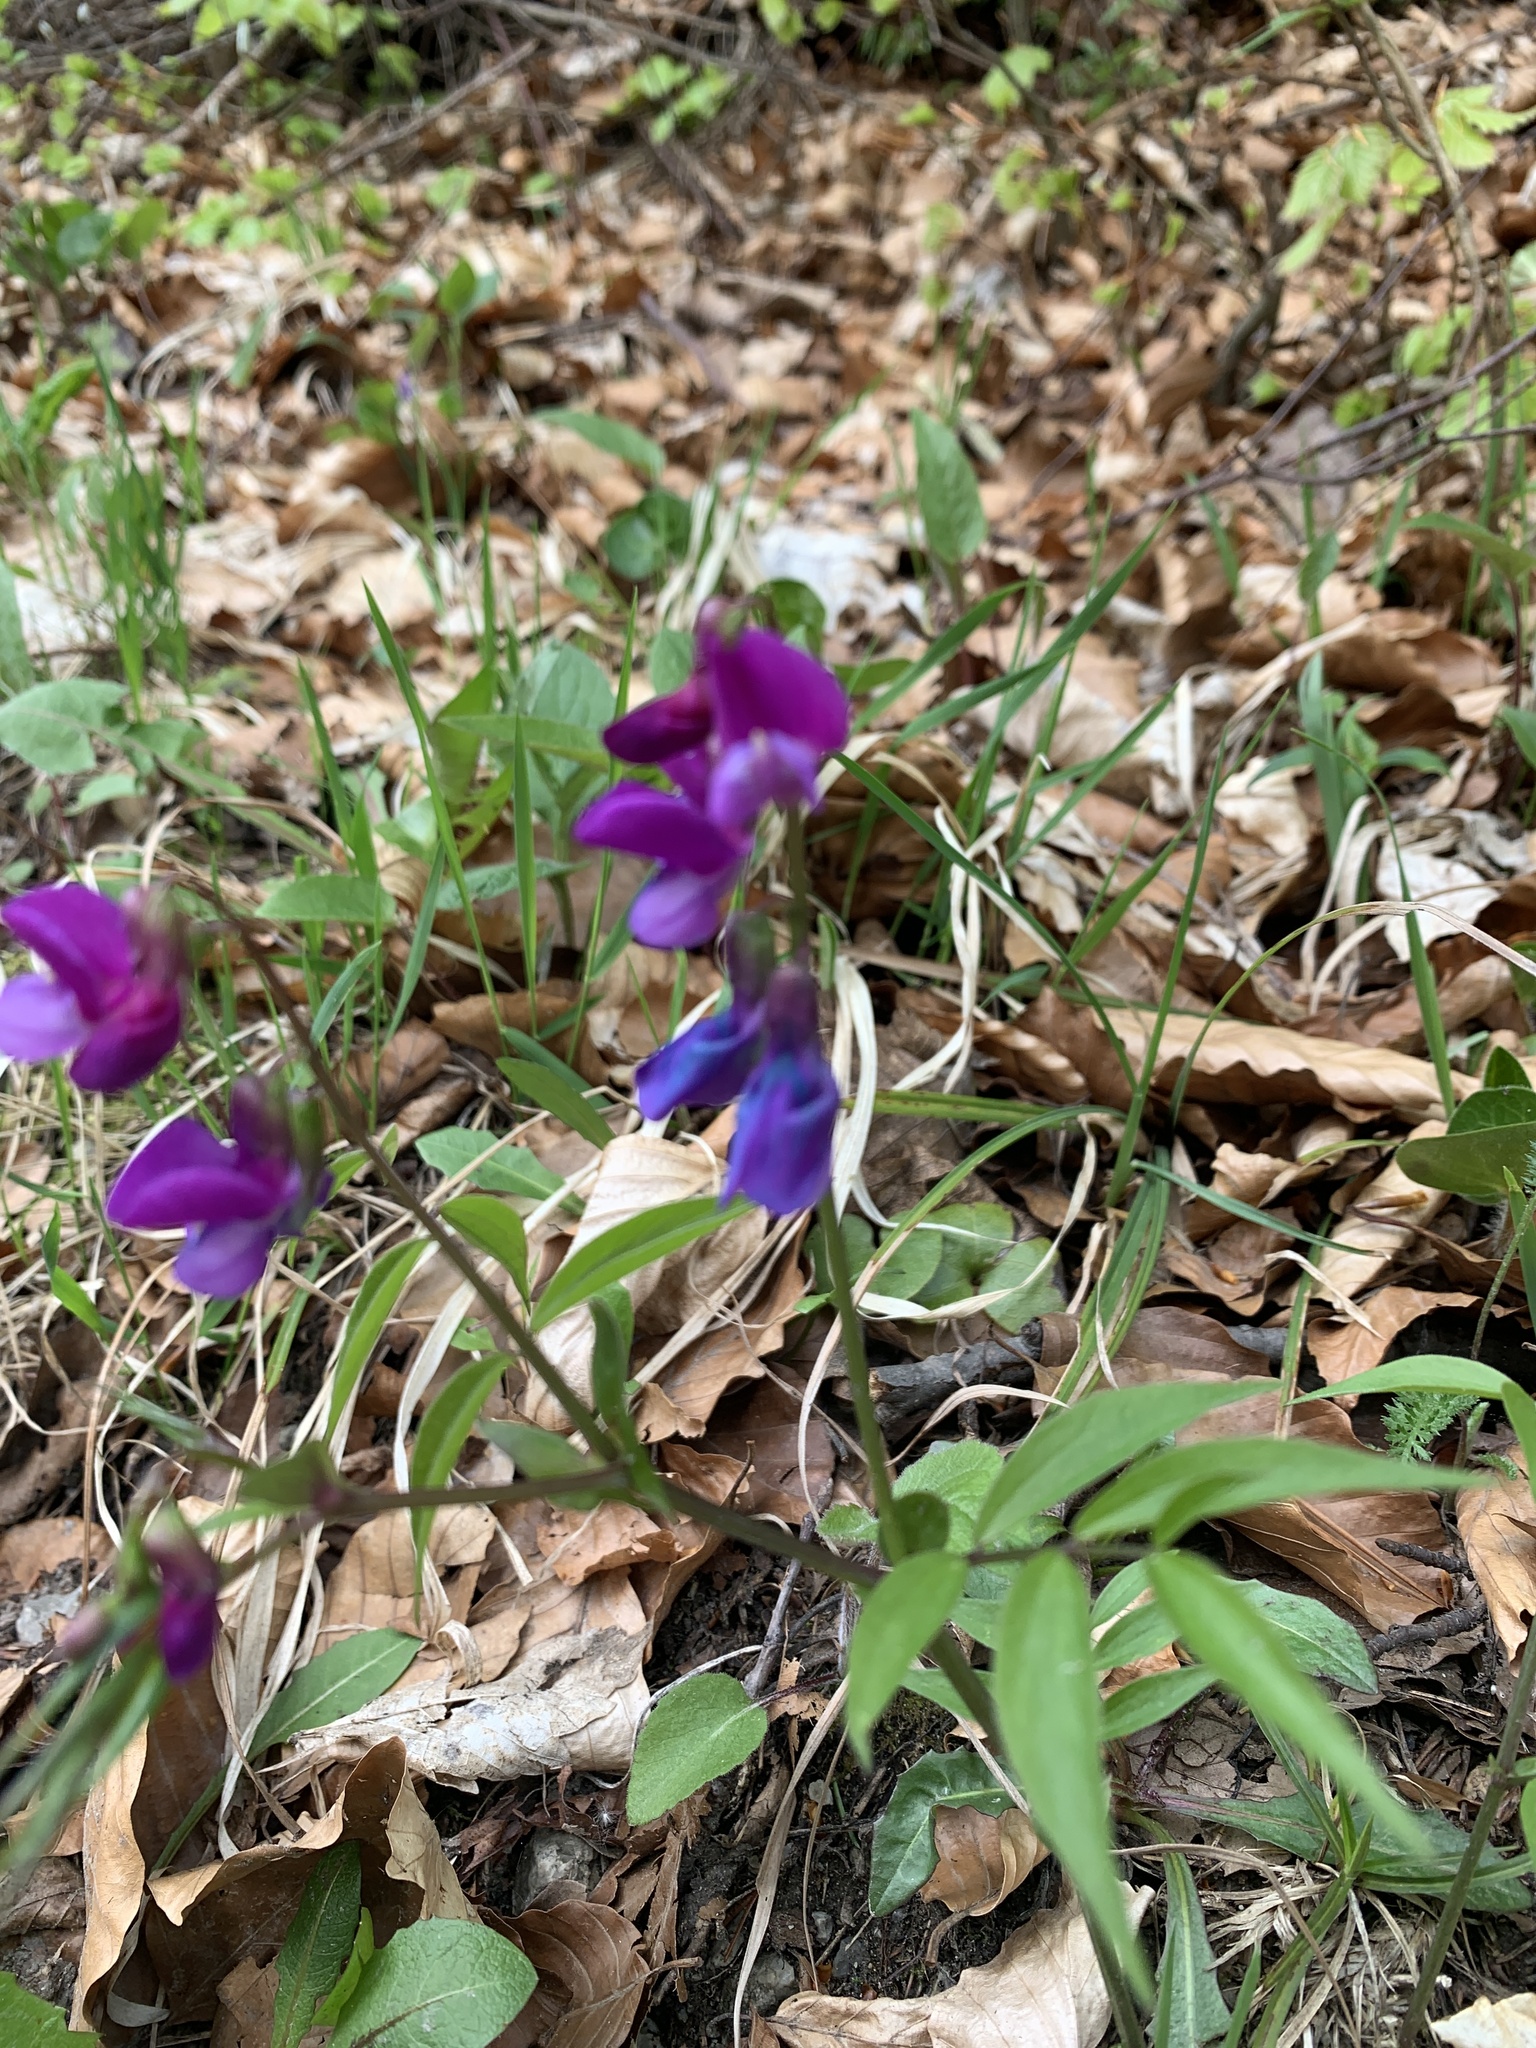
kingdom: Plantae
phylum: Tracheophyta
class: Magnoliopsida
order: Fabales
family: Fabaceae
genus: Lathyrus
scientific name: Lathyrus vernus
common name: Spring pea
